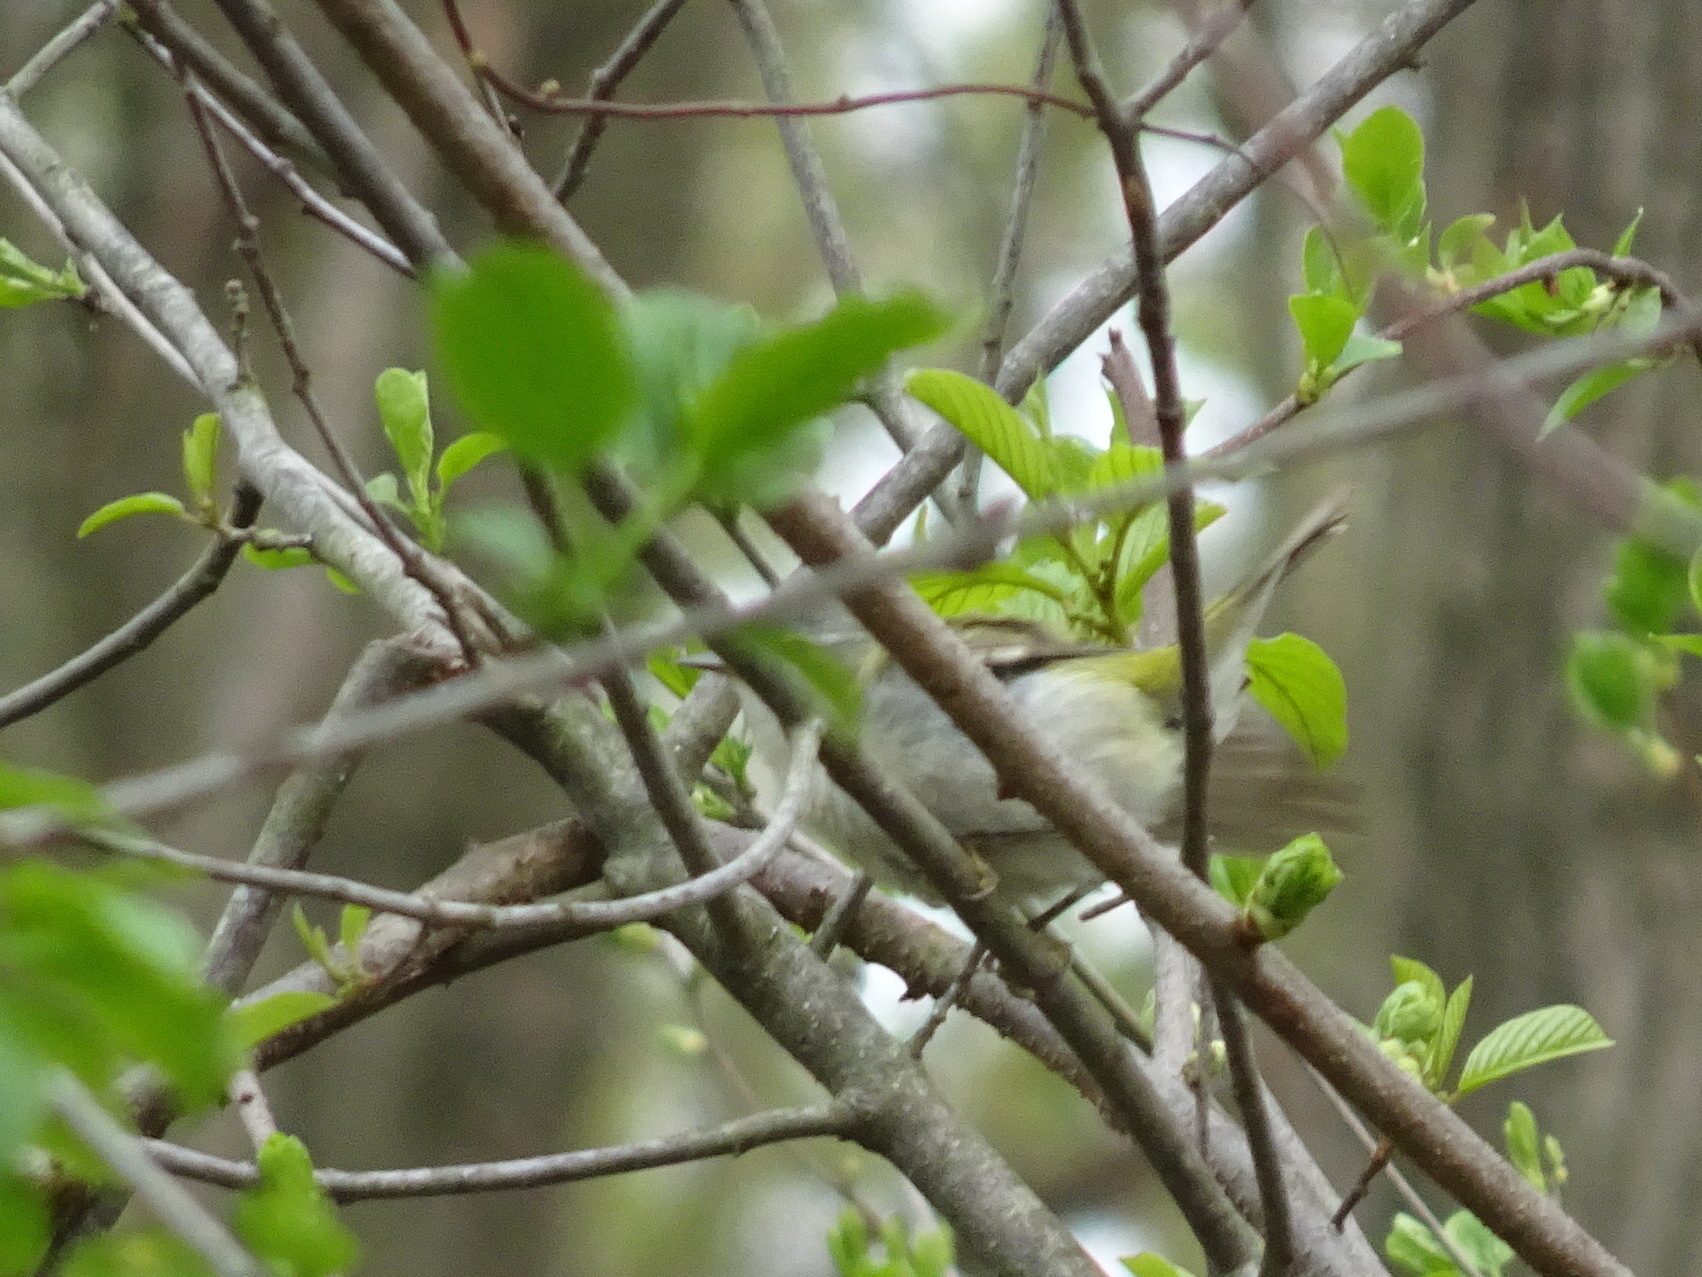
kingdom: Animalia
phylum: Chordata
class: Aves
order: Passeriformes
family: Parulidae
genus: Leiothlypis
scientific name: Leiothlypis peregrina
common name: Tennessee warbler
